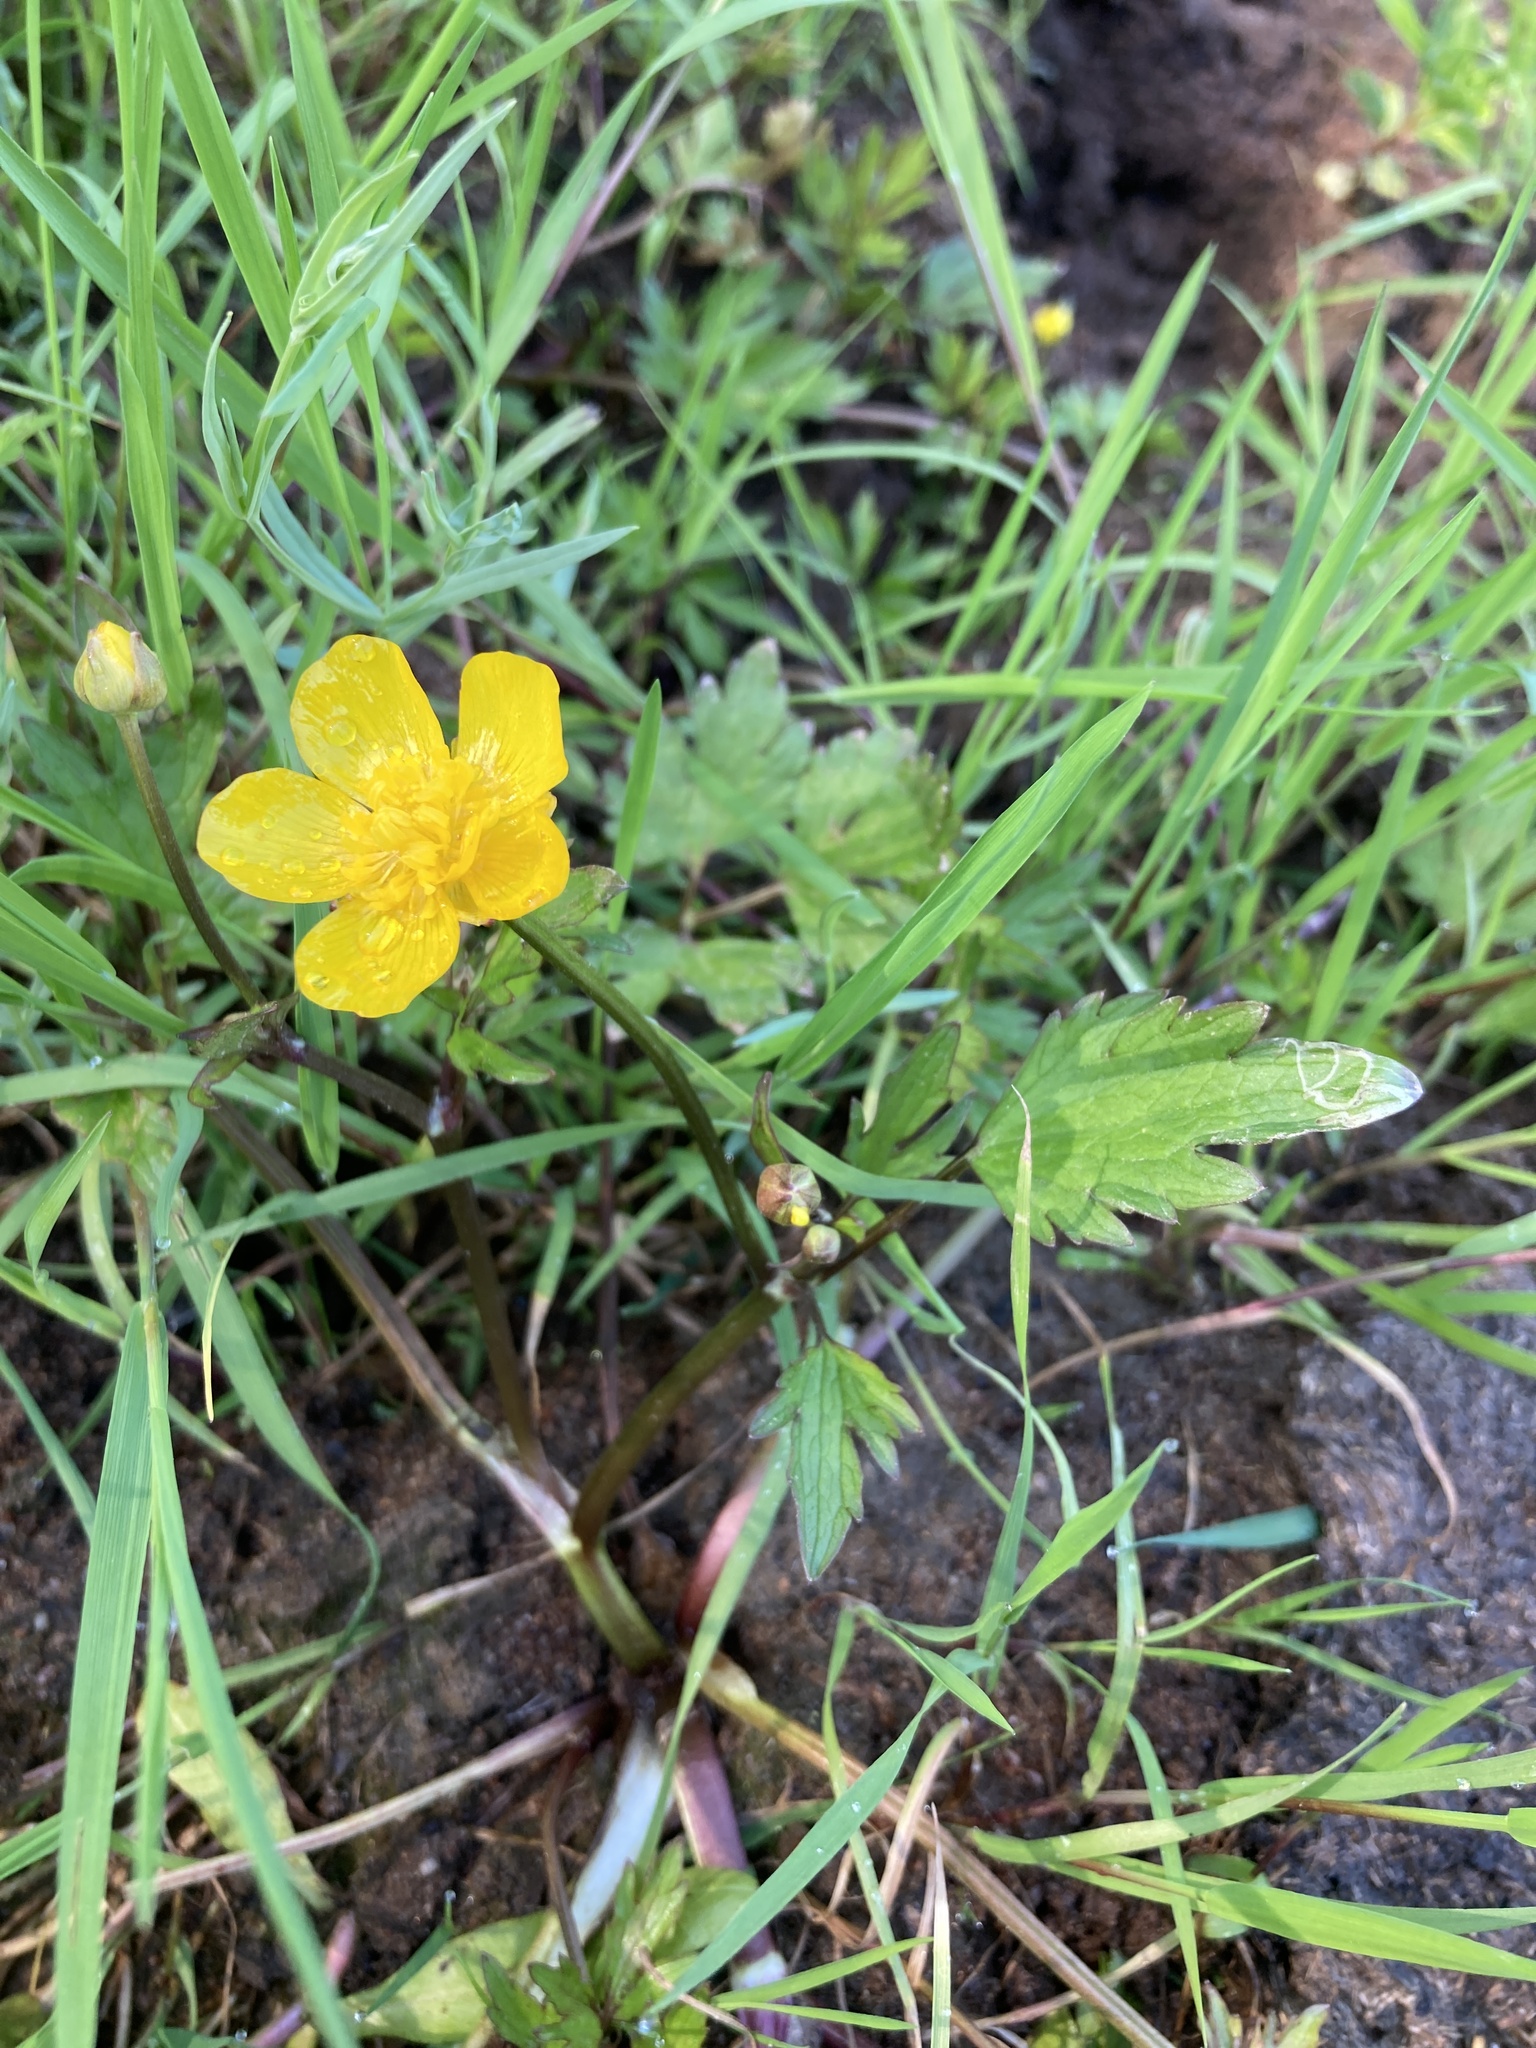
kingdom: Plantae
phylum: Tracheophyta
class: Magnoliopsida
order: Ranunculales
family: Ranunculaceae
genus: Ranunculus
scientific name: Ranunculus repens
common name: Creeping buttercup
